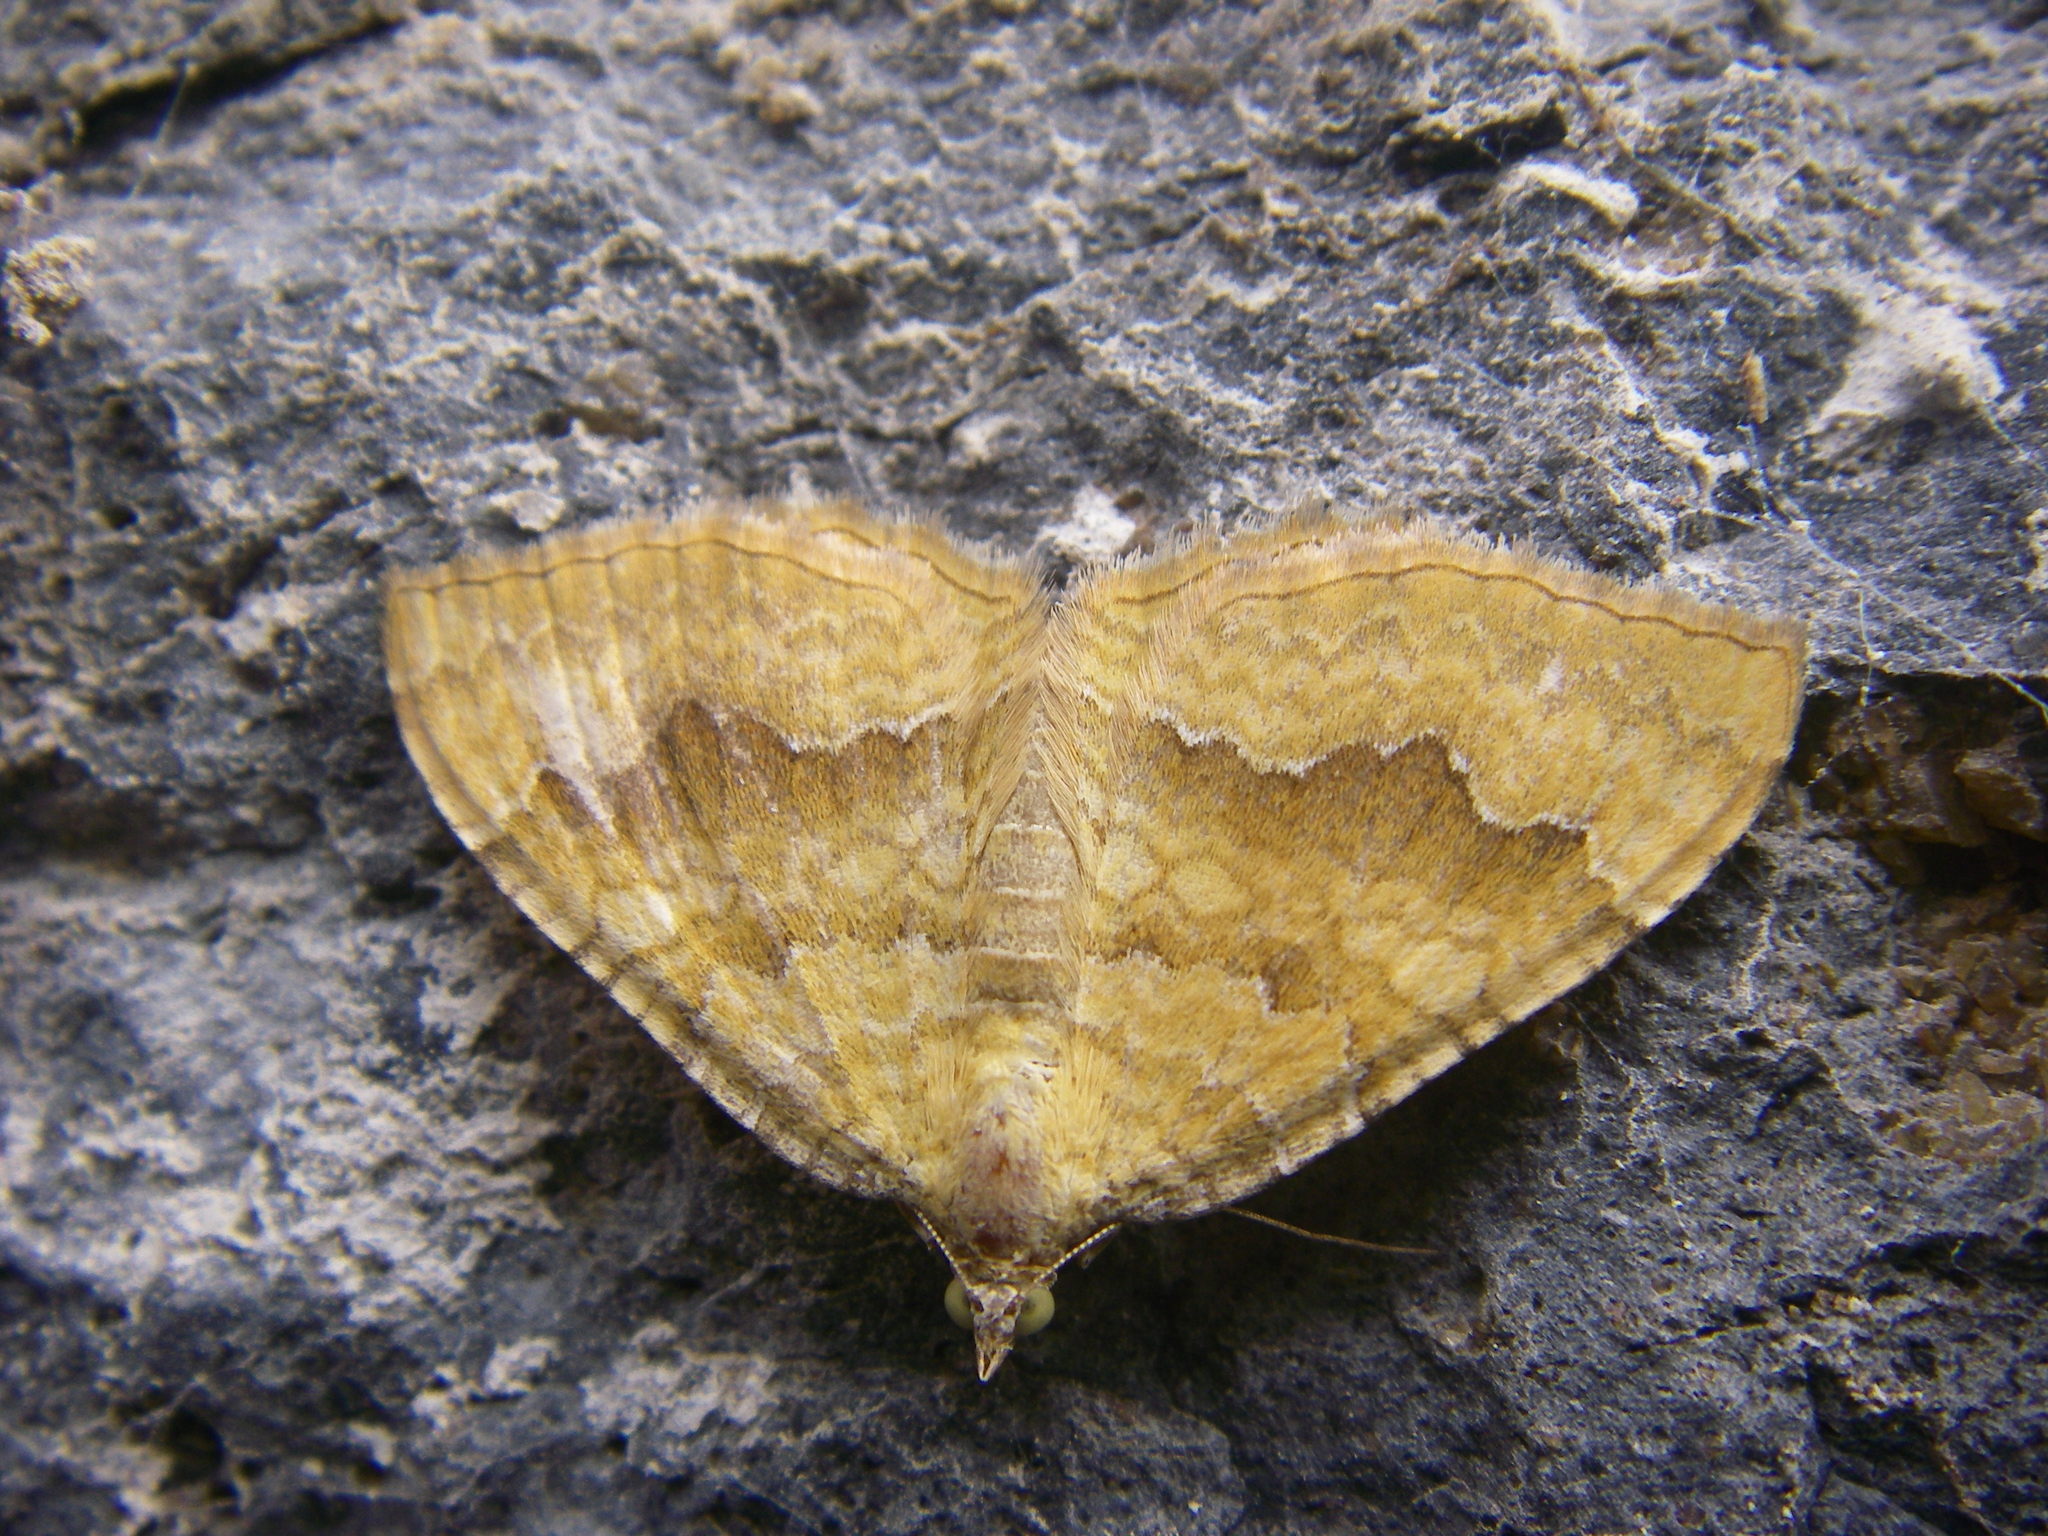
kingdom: Animalia
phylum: Arthropoda
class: Insecta
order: Lepidoptera
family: Geometridae
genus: Camptogramma
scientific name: Camptogramma bilineata
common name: Yellow shell
